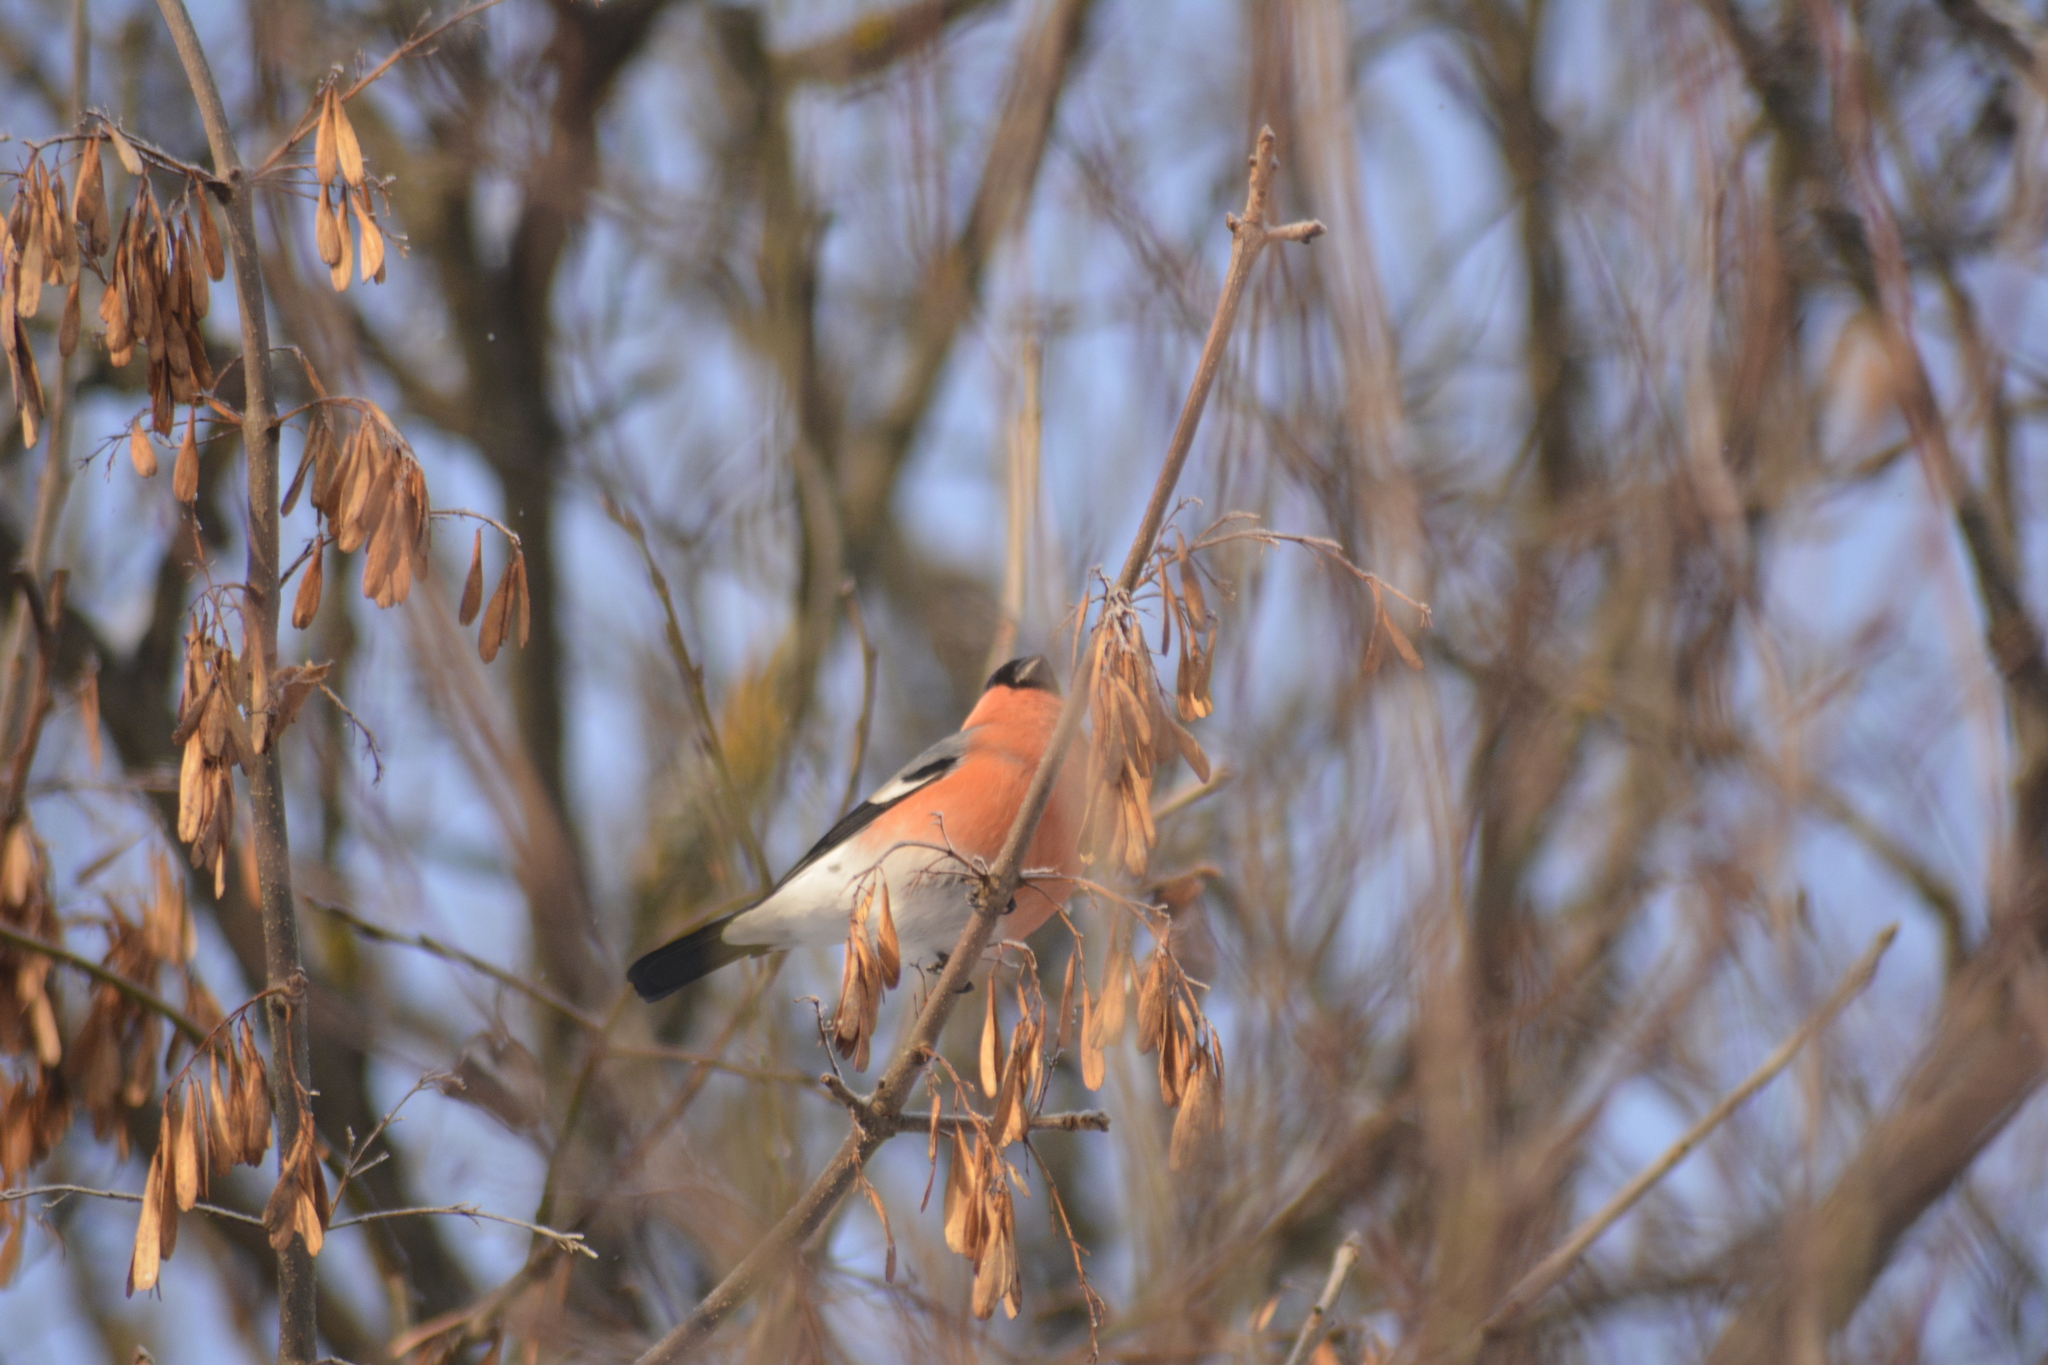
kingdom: Animalia
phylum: Chordata
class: Aves
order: Passeriformes
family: Fringillidae
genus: Pyrrhula
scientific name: Pyrrhula pyrrhula
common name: Eurasian bullfinch
